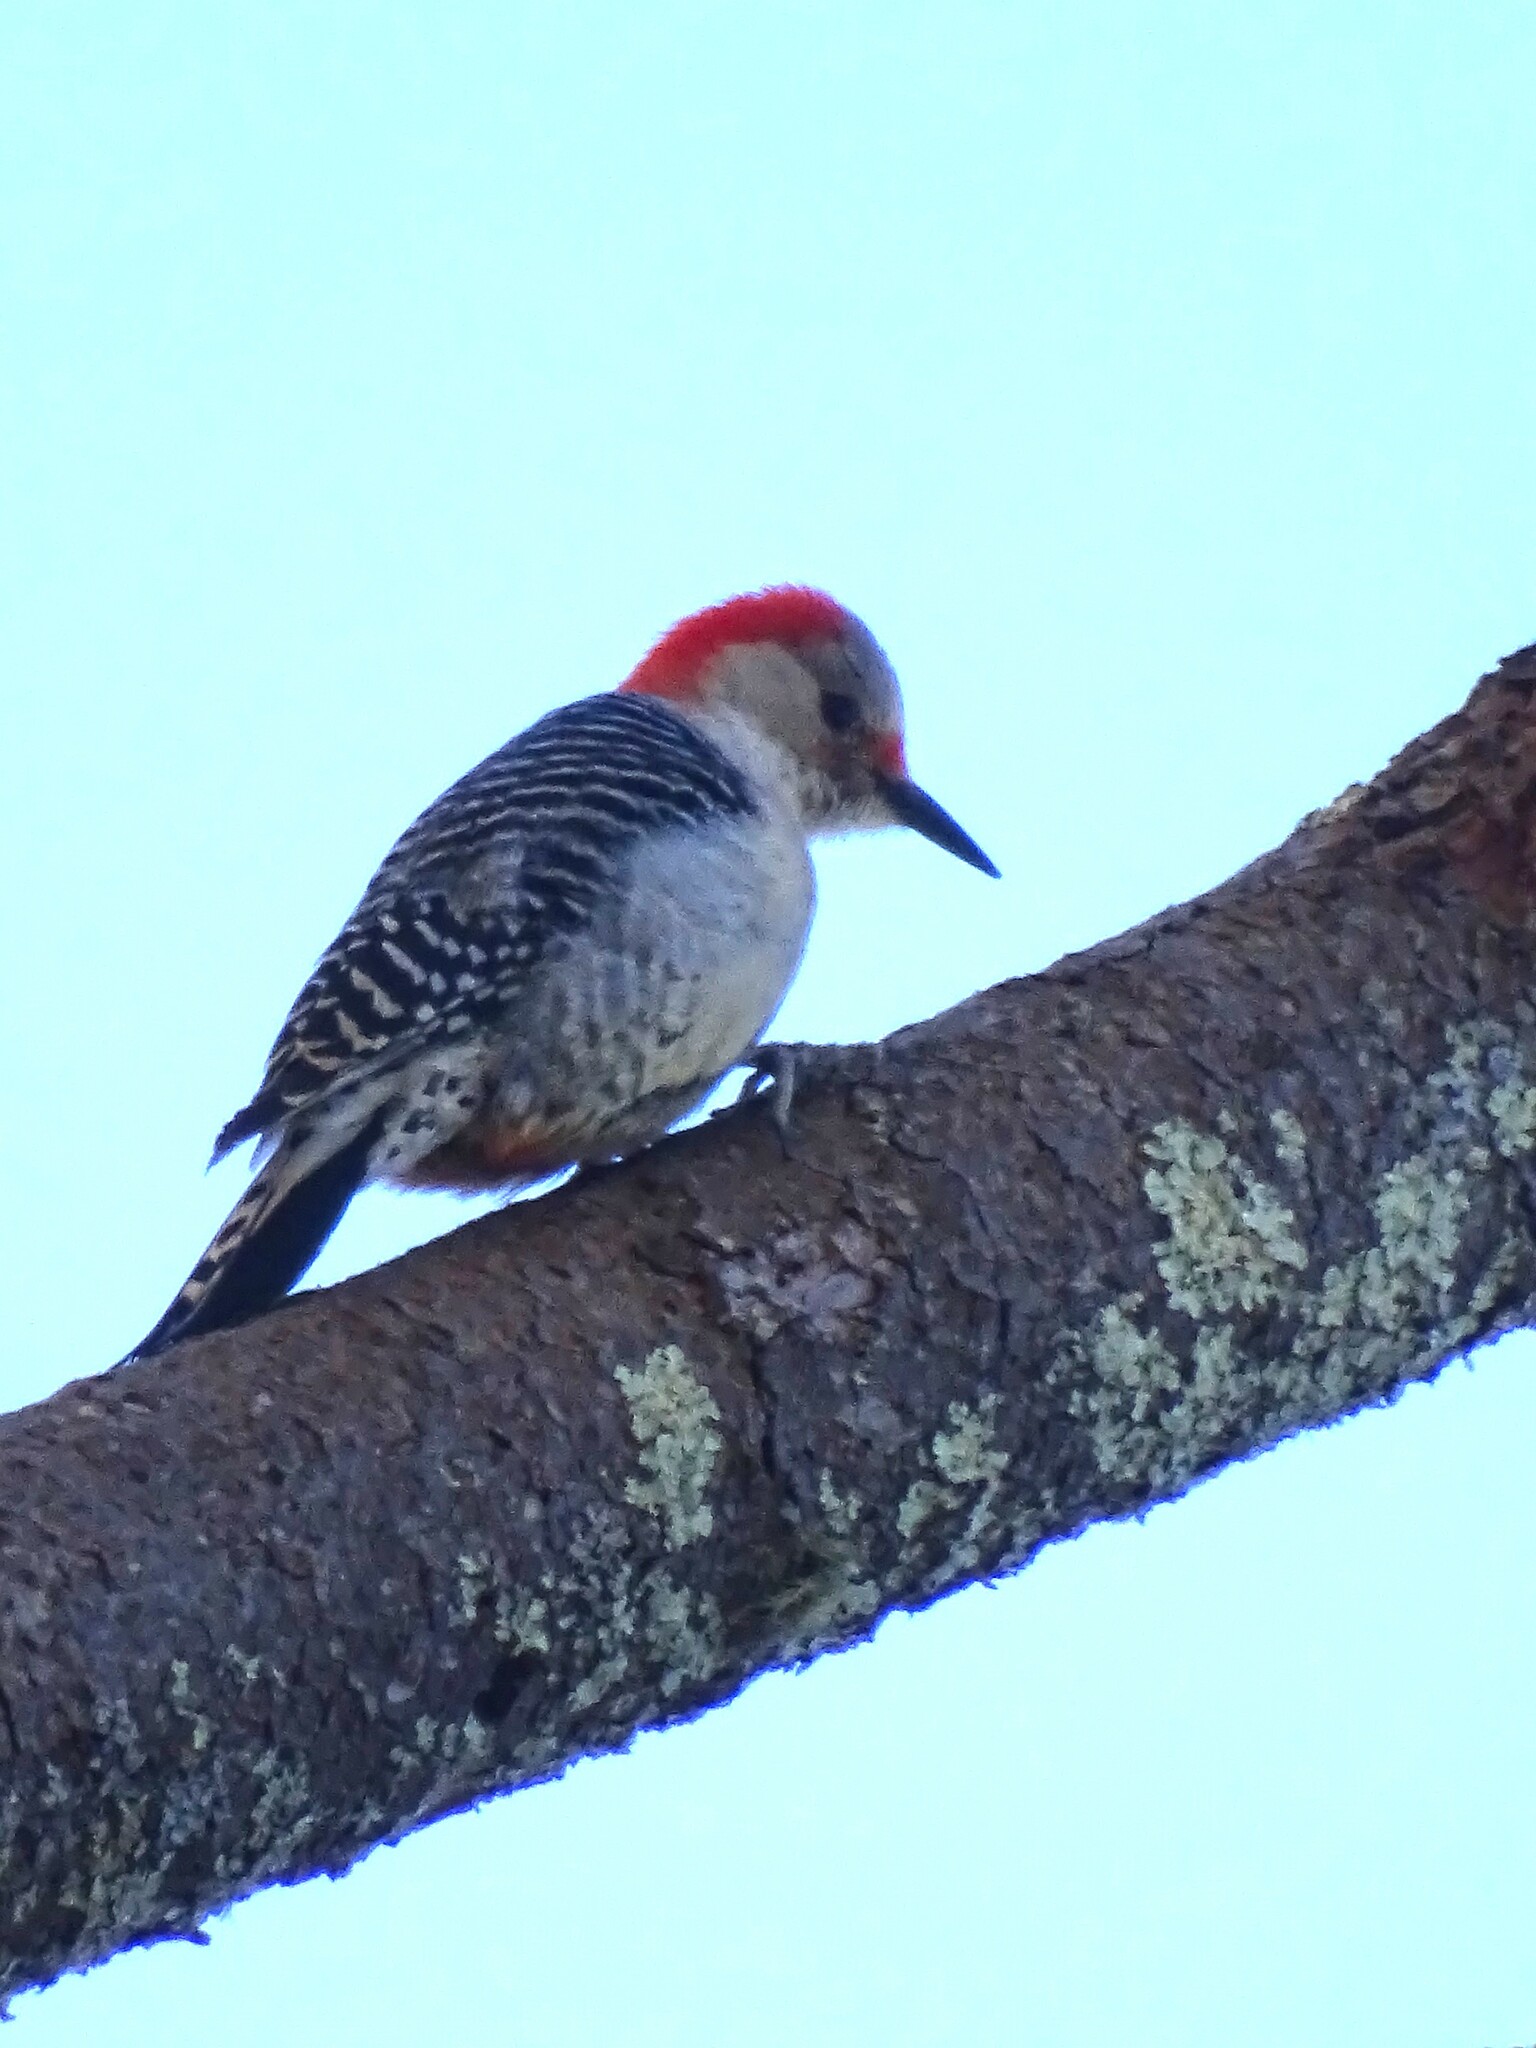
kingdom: Animalia
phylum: Chordata
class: Aves
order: Piciformes
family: Picidae
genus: Melanerpes
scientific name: Melanerpes carolinus
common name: Red-bellied woodpecker
